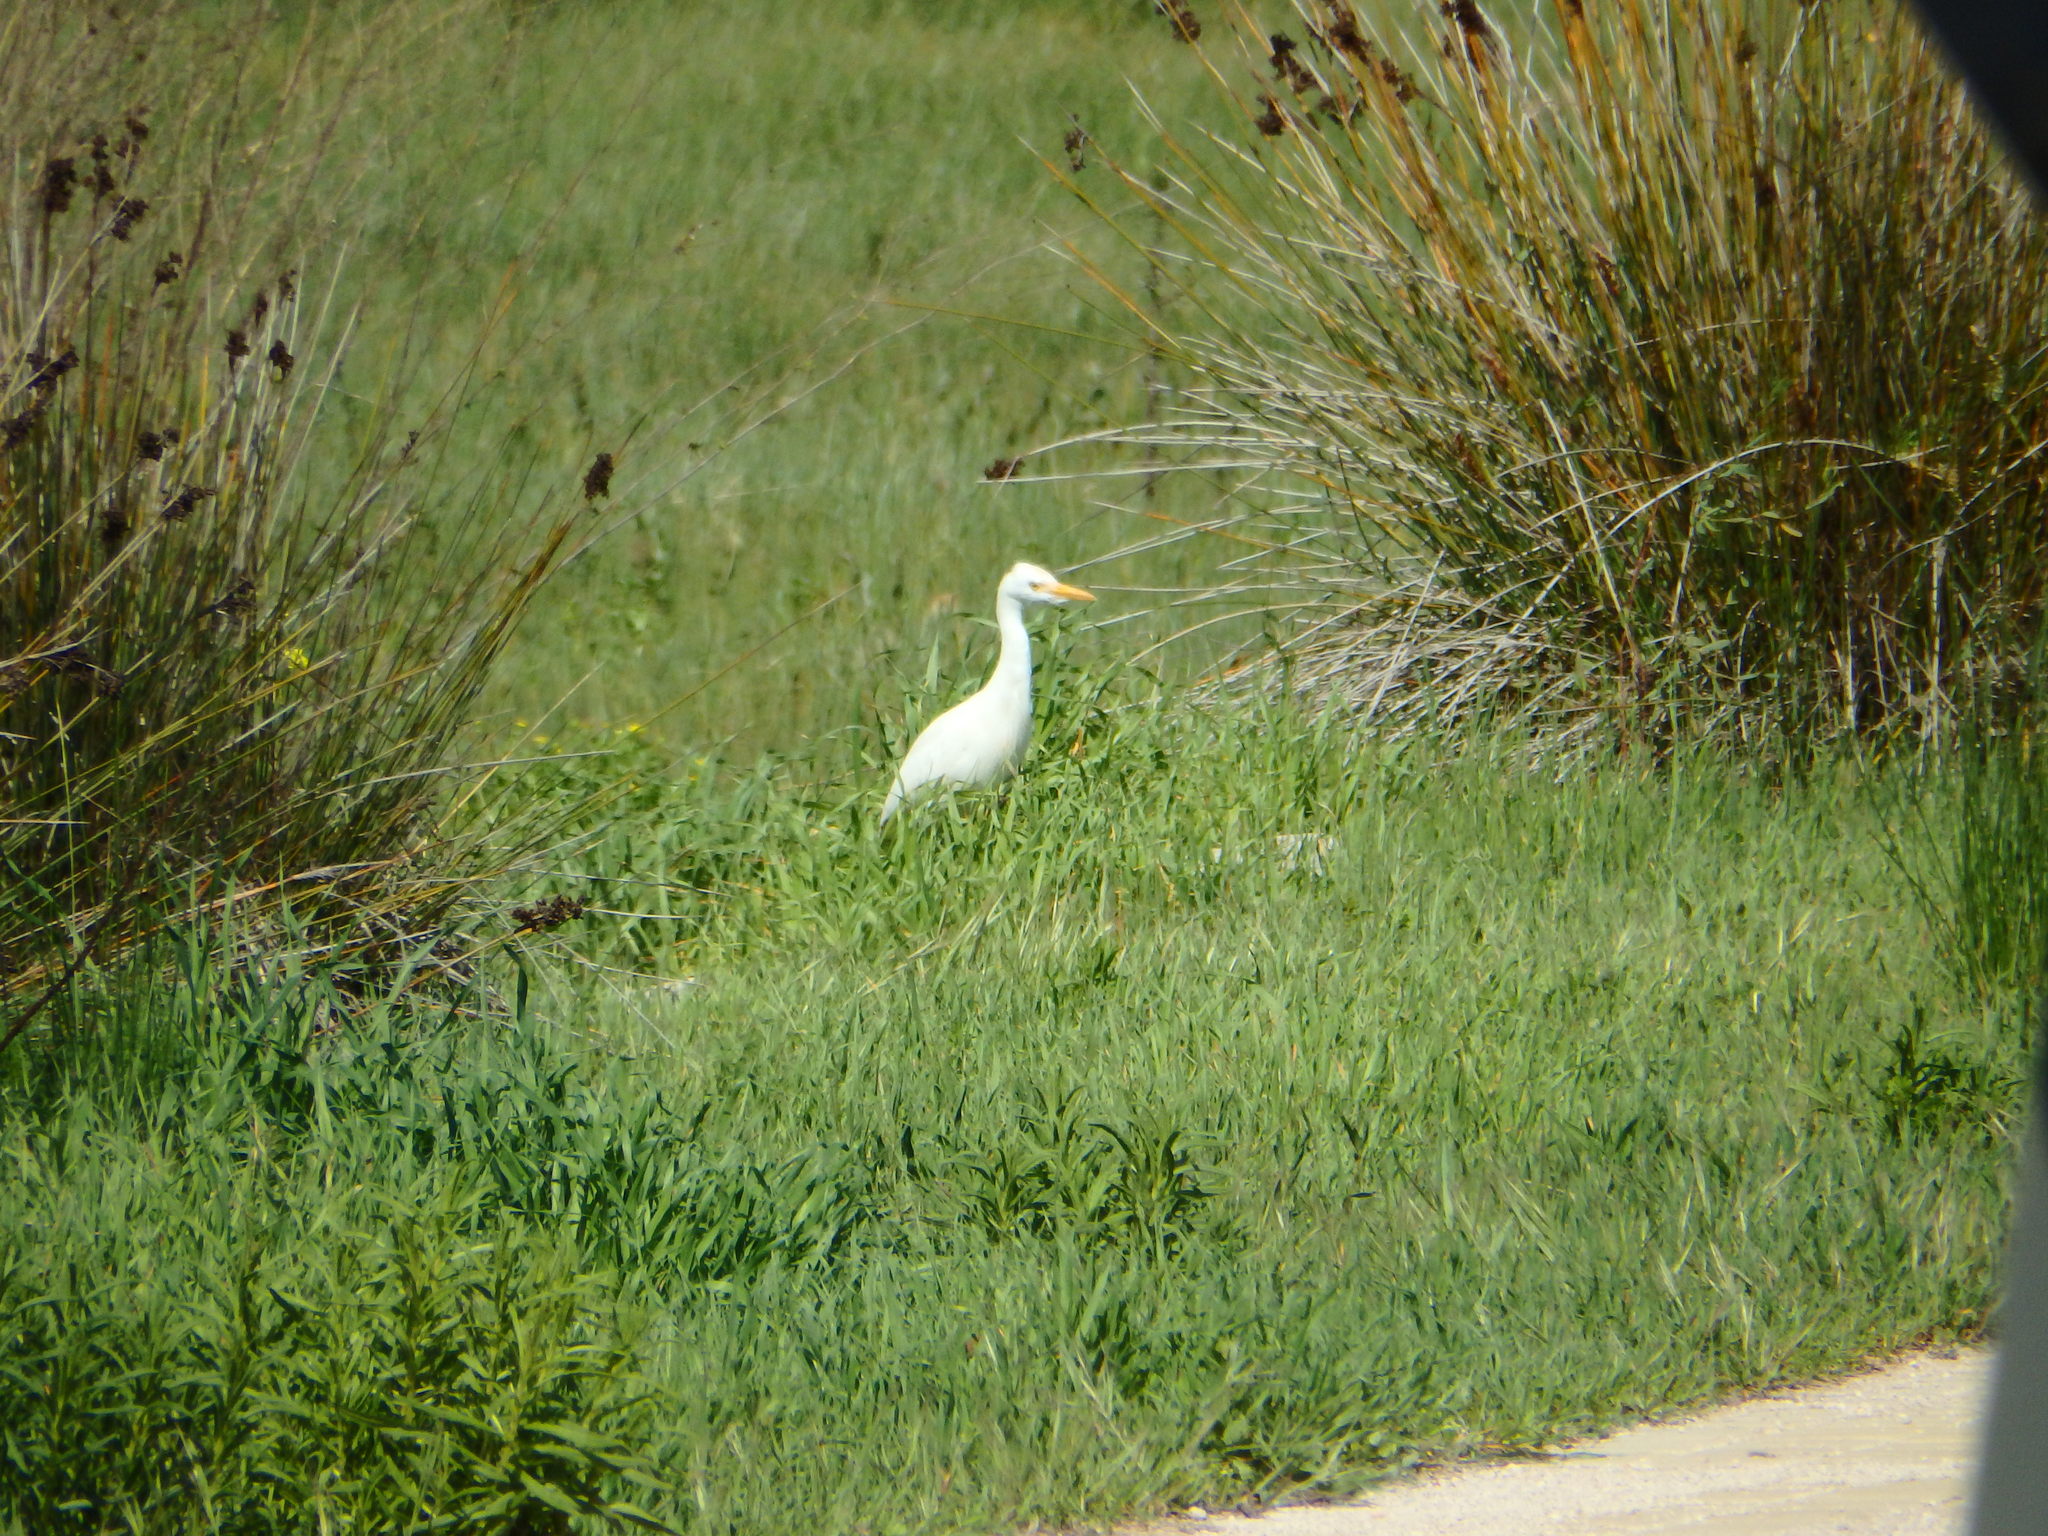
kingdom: Animalia
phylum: Chordata
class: Aves
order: Pelecaniformes
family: Ardeidae
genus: Bubulcus
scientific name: Bubulcus ibis
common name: Cattle egret
